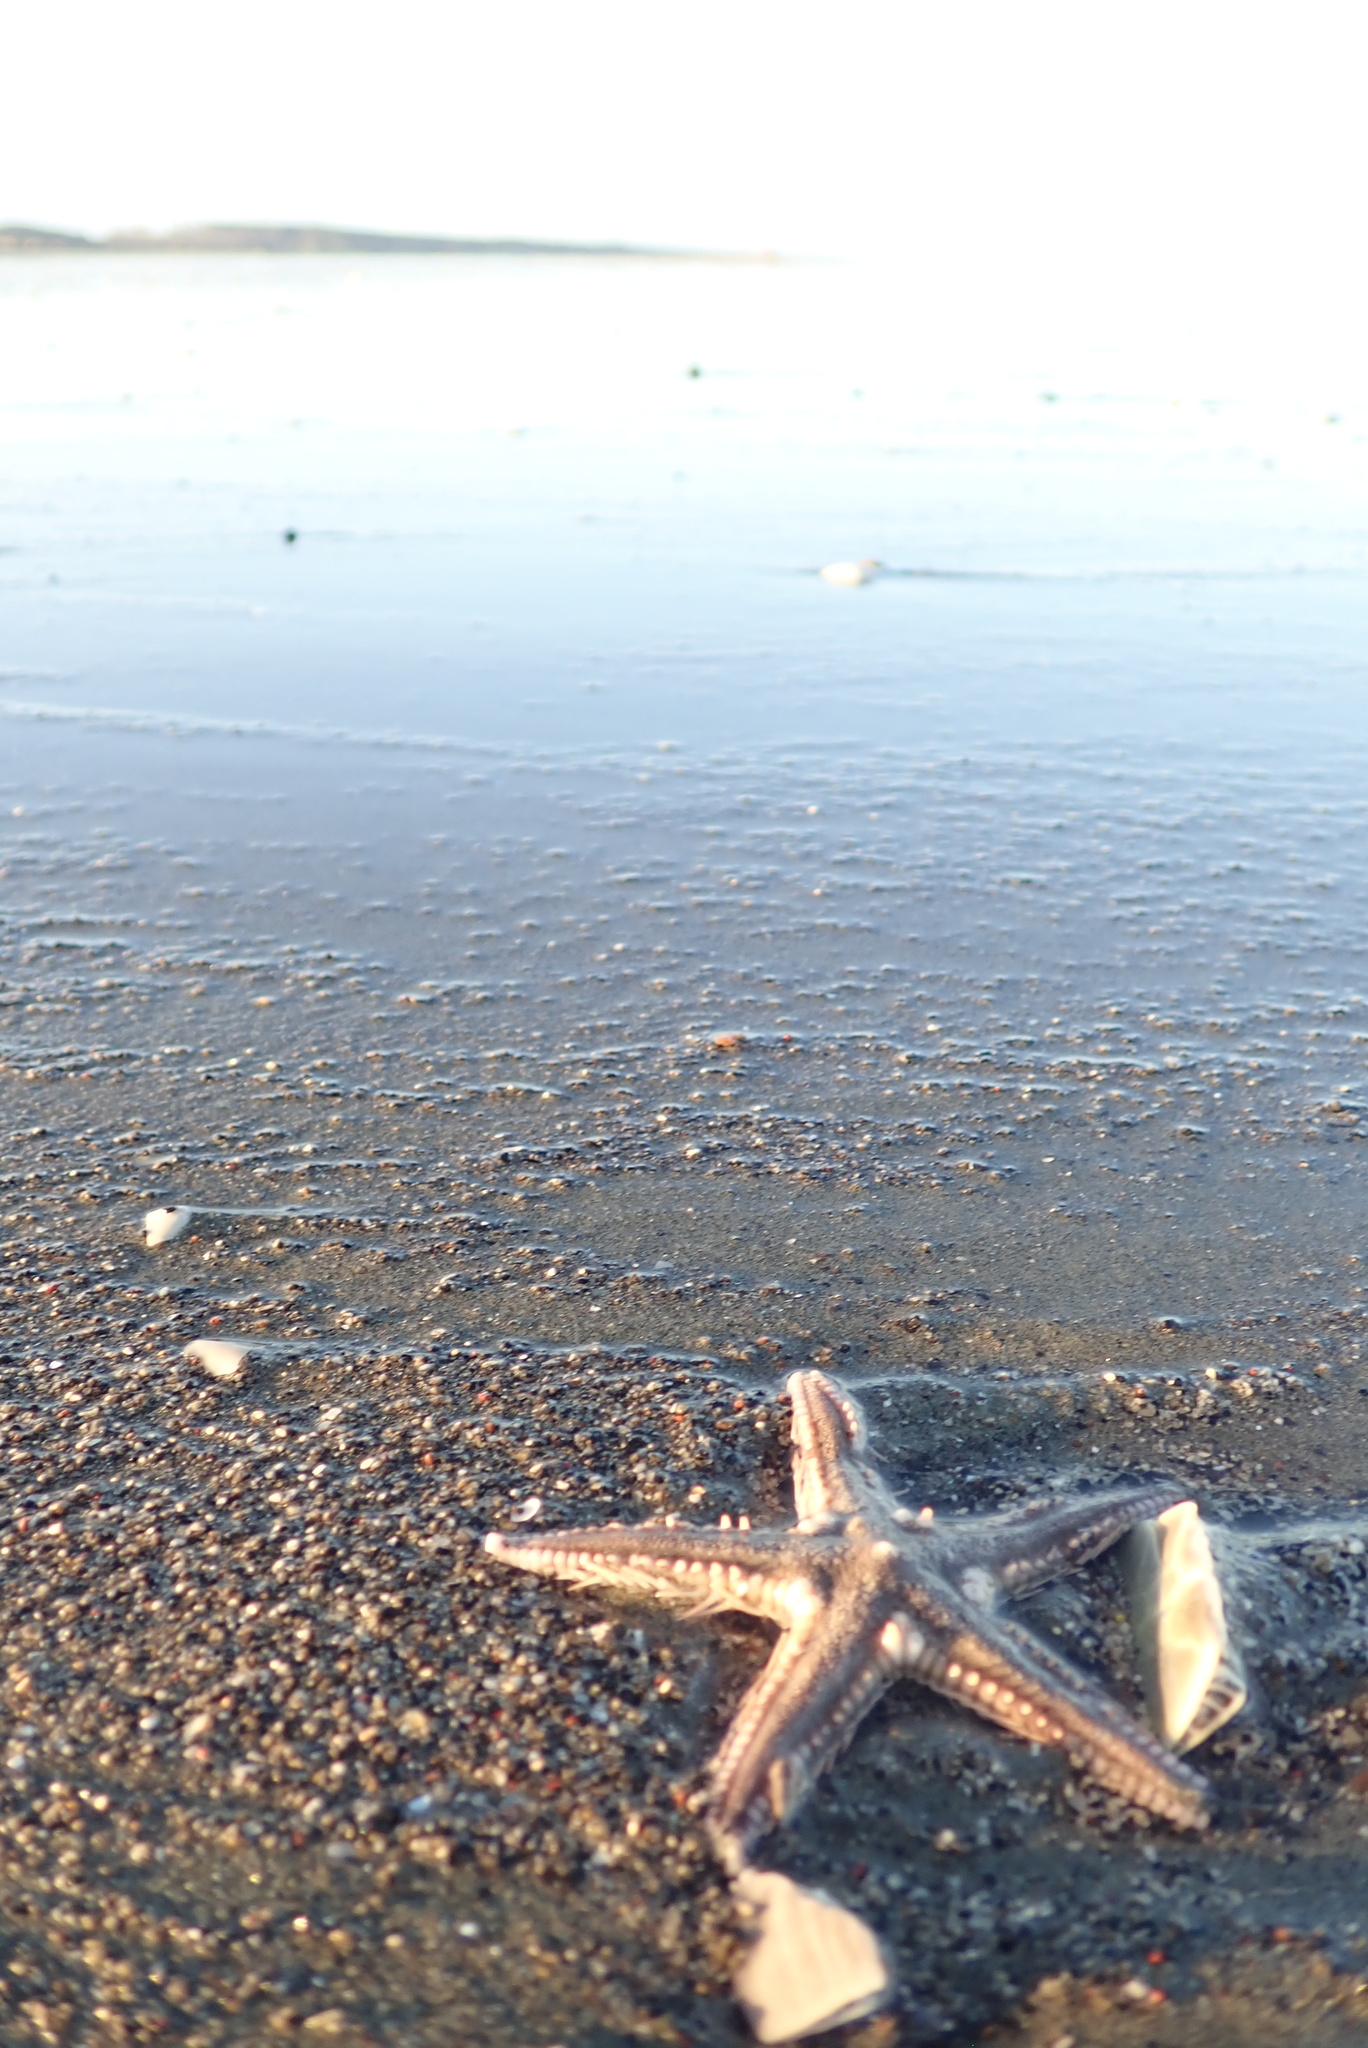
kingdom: Animalia
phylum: Echinodermata
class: Asteroidea
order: Paxillosida
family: Astropectinidae
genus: Astropecten
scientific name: Astropecten polyacanthus
